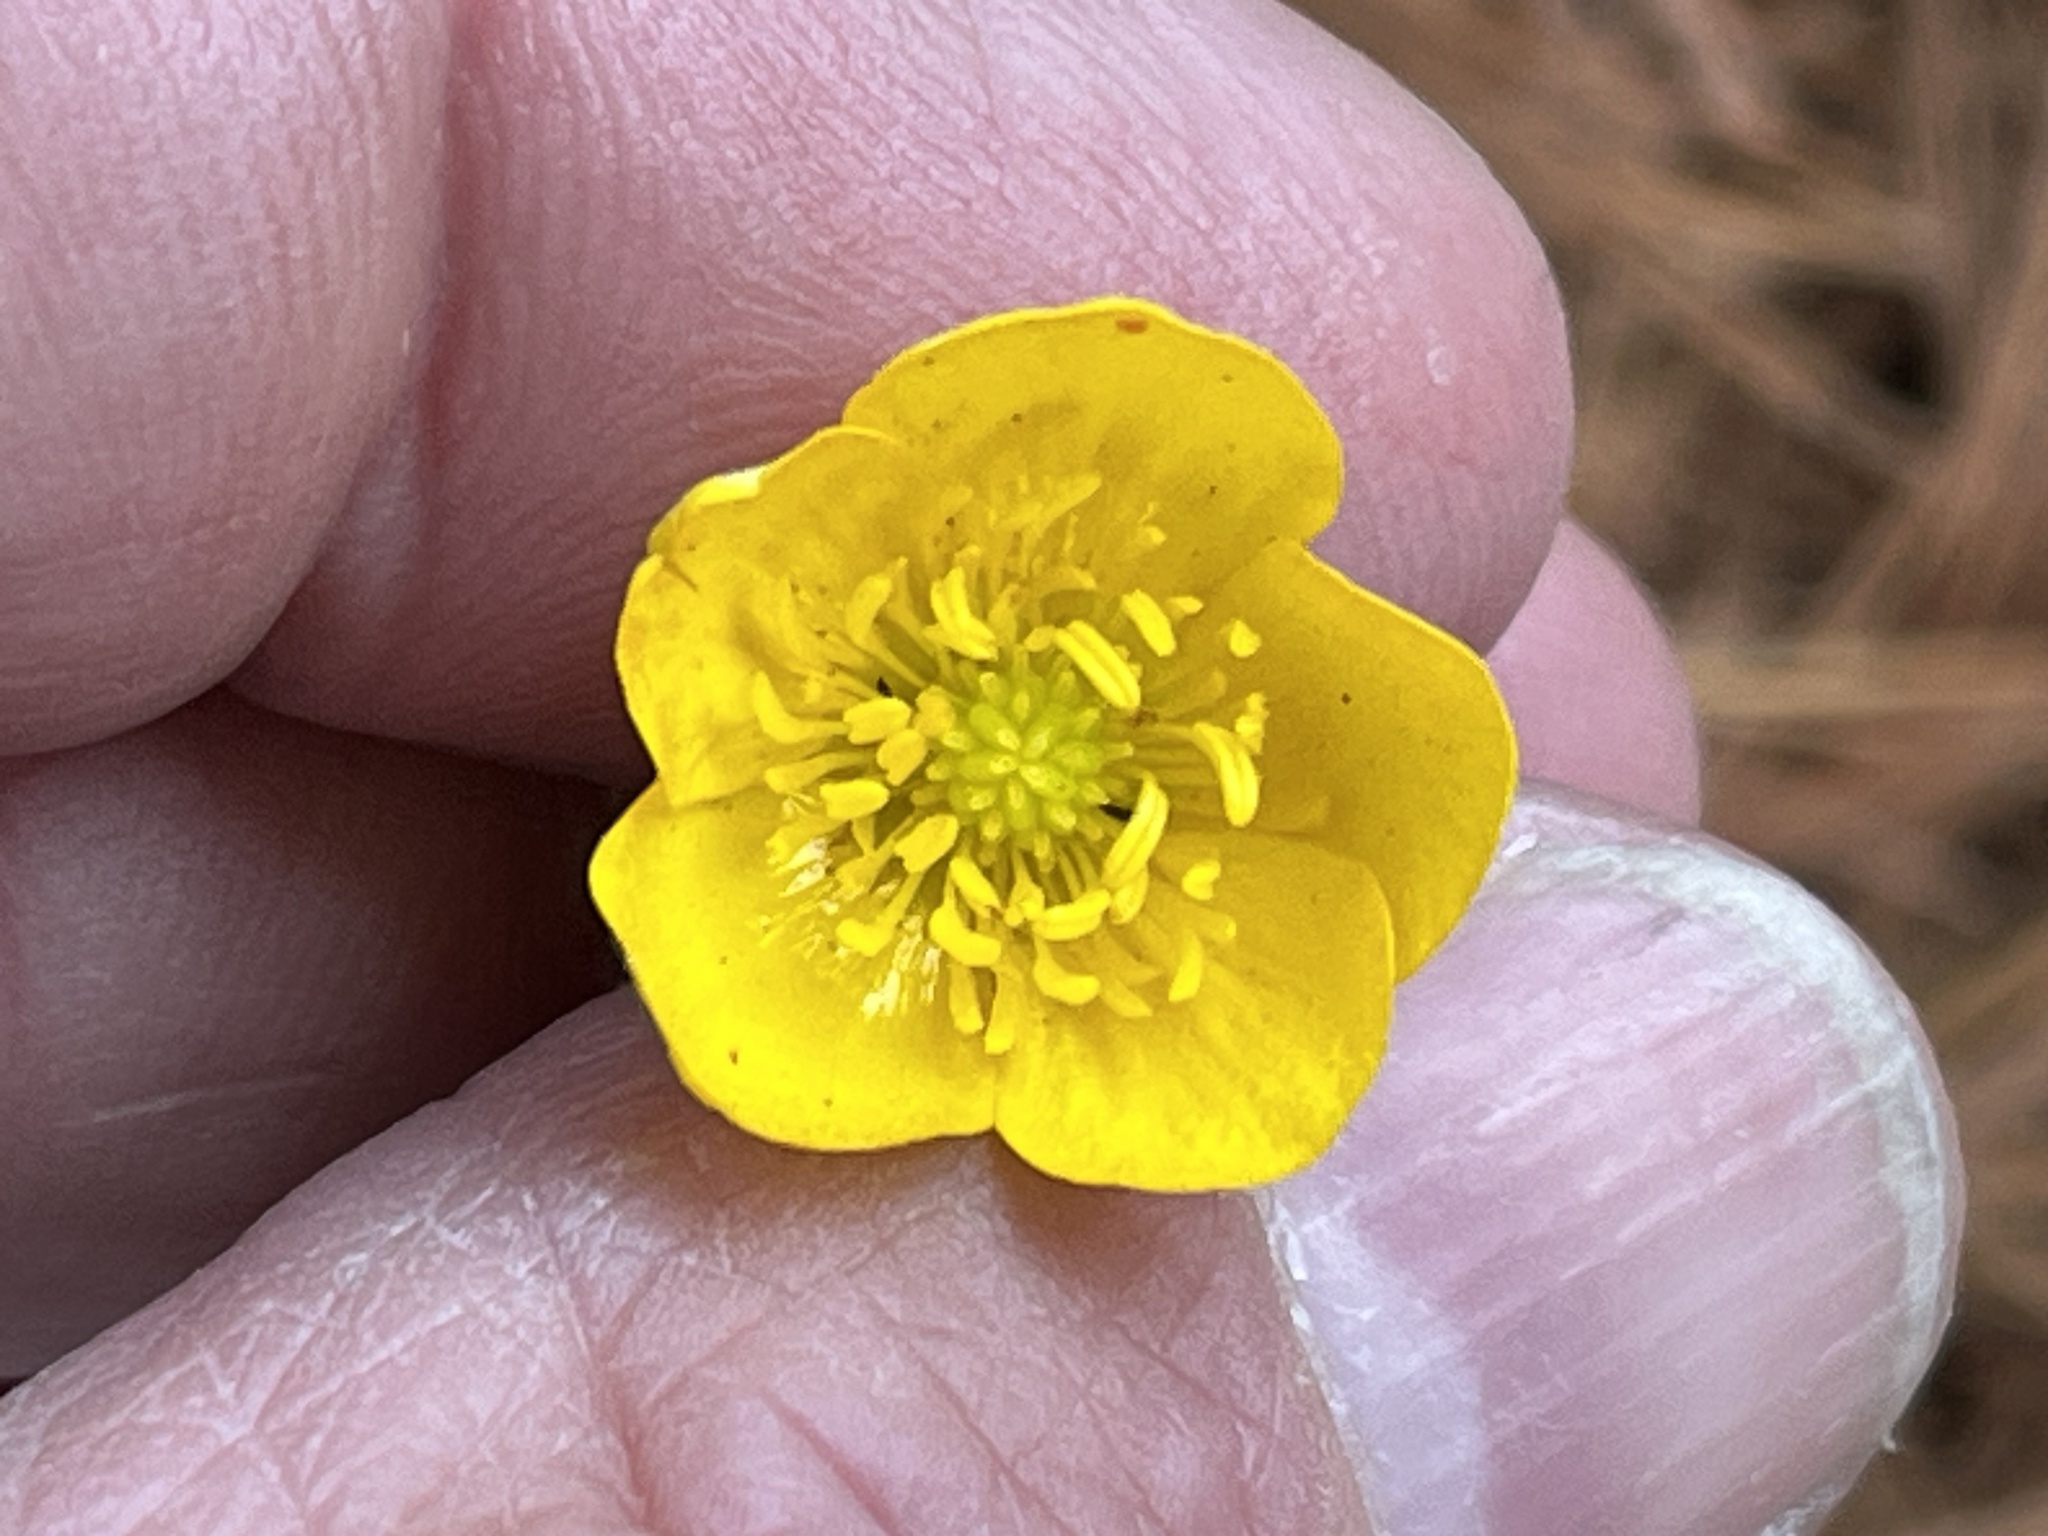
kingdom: Plantae
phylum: Tracheophyta
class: Magnoliopsida
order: Ranunculales
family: Ranunculaceae
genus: Ranunculus
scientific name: Ranunculus bulbosus
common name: Bulbous buttercup
